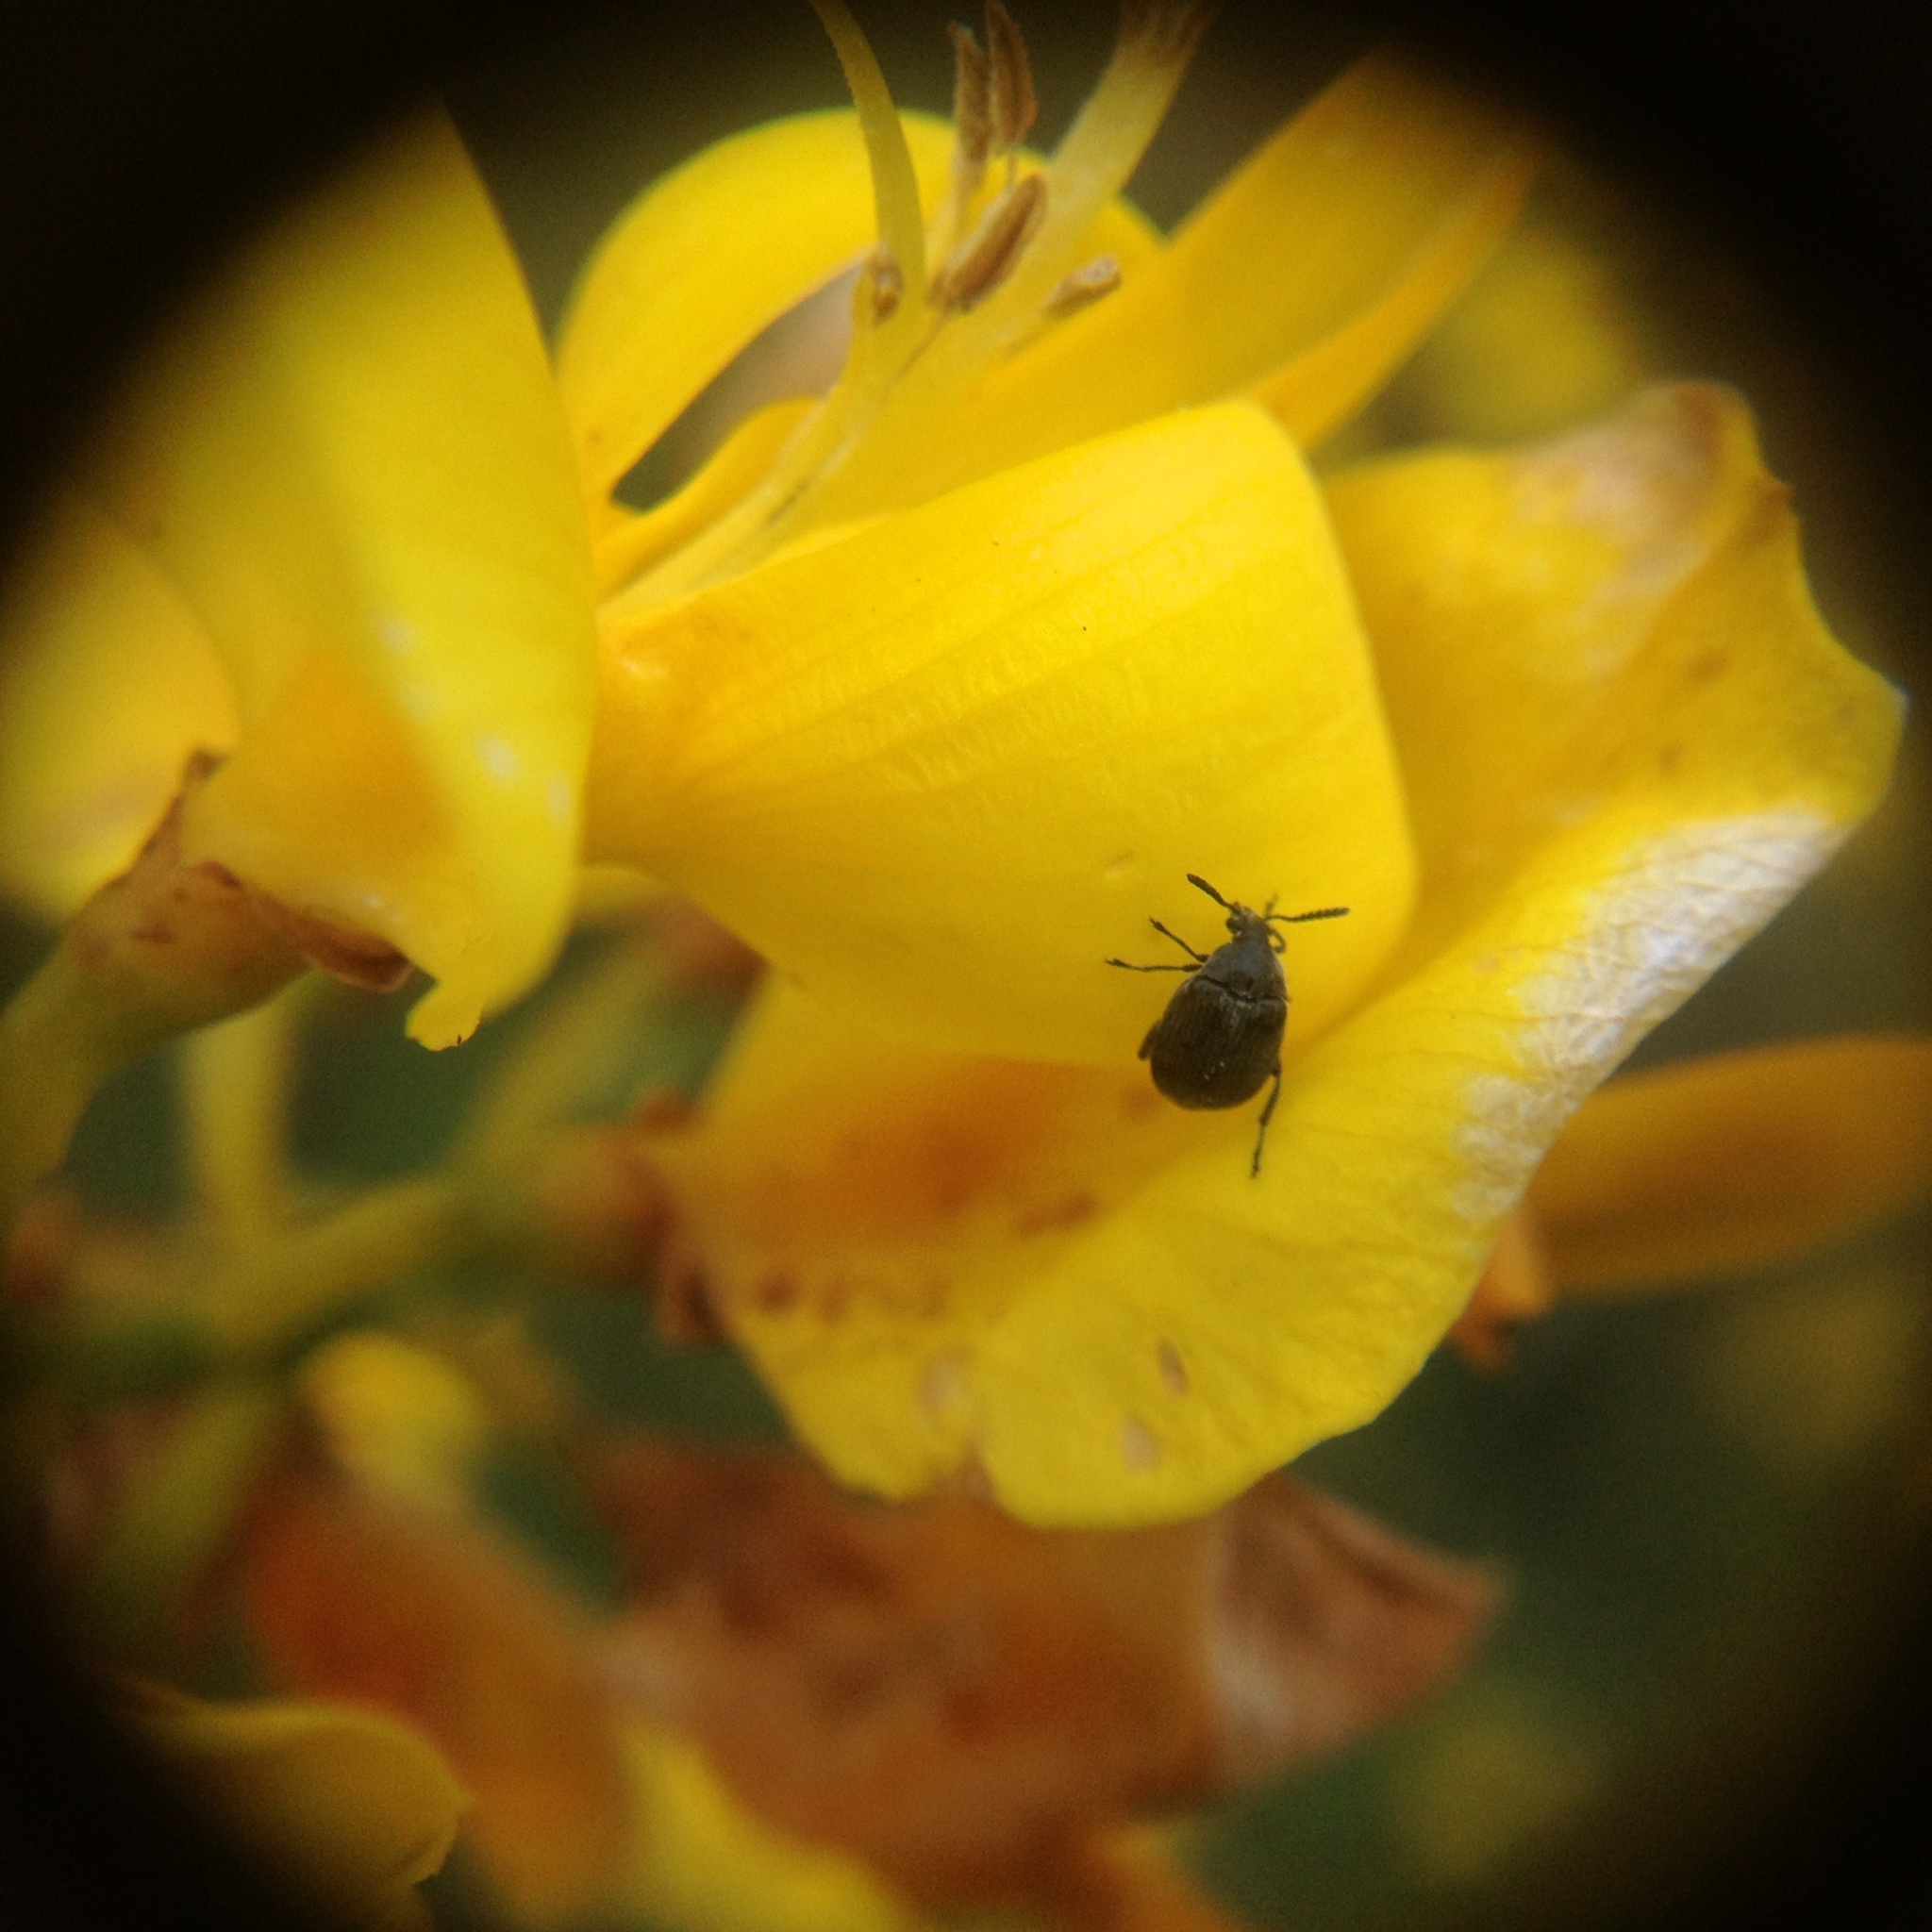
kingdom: Animalia
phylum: Arthropoda
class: Insecta
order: Coleoptera
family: Chrysomelidae
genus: Bruchidius
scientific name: Bruchidius villosus
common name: Scotch broom bruchid
